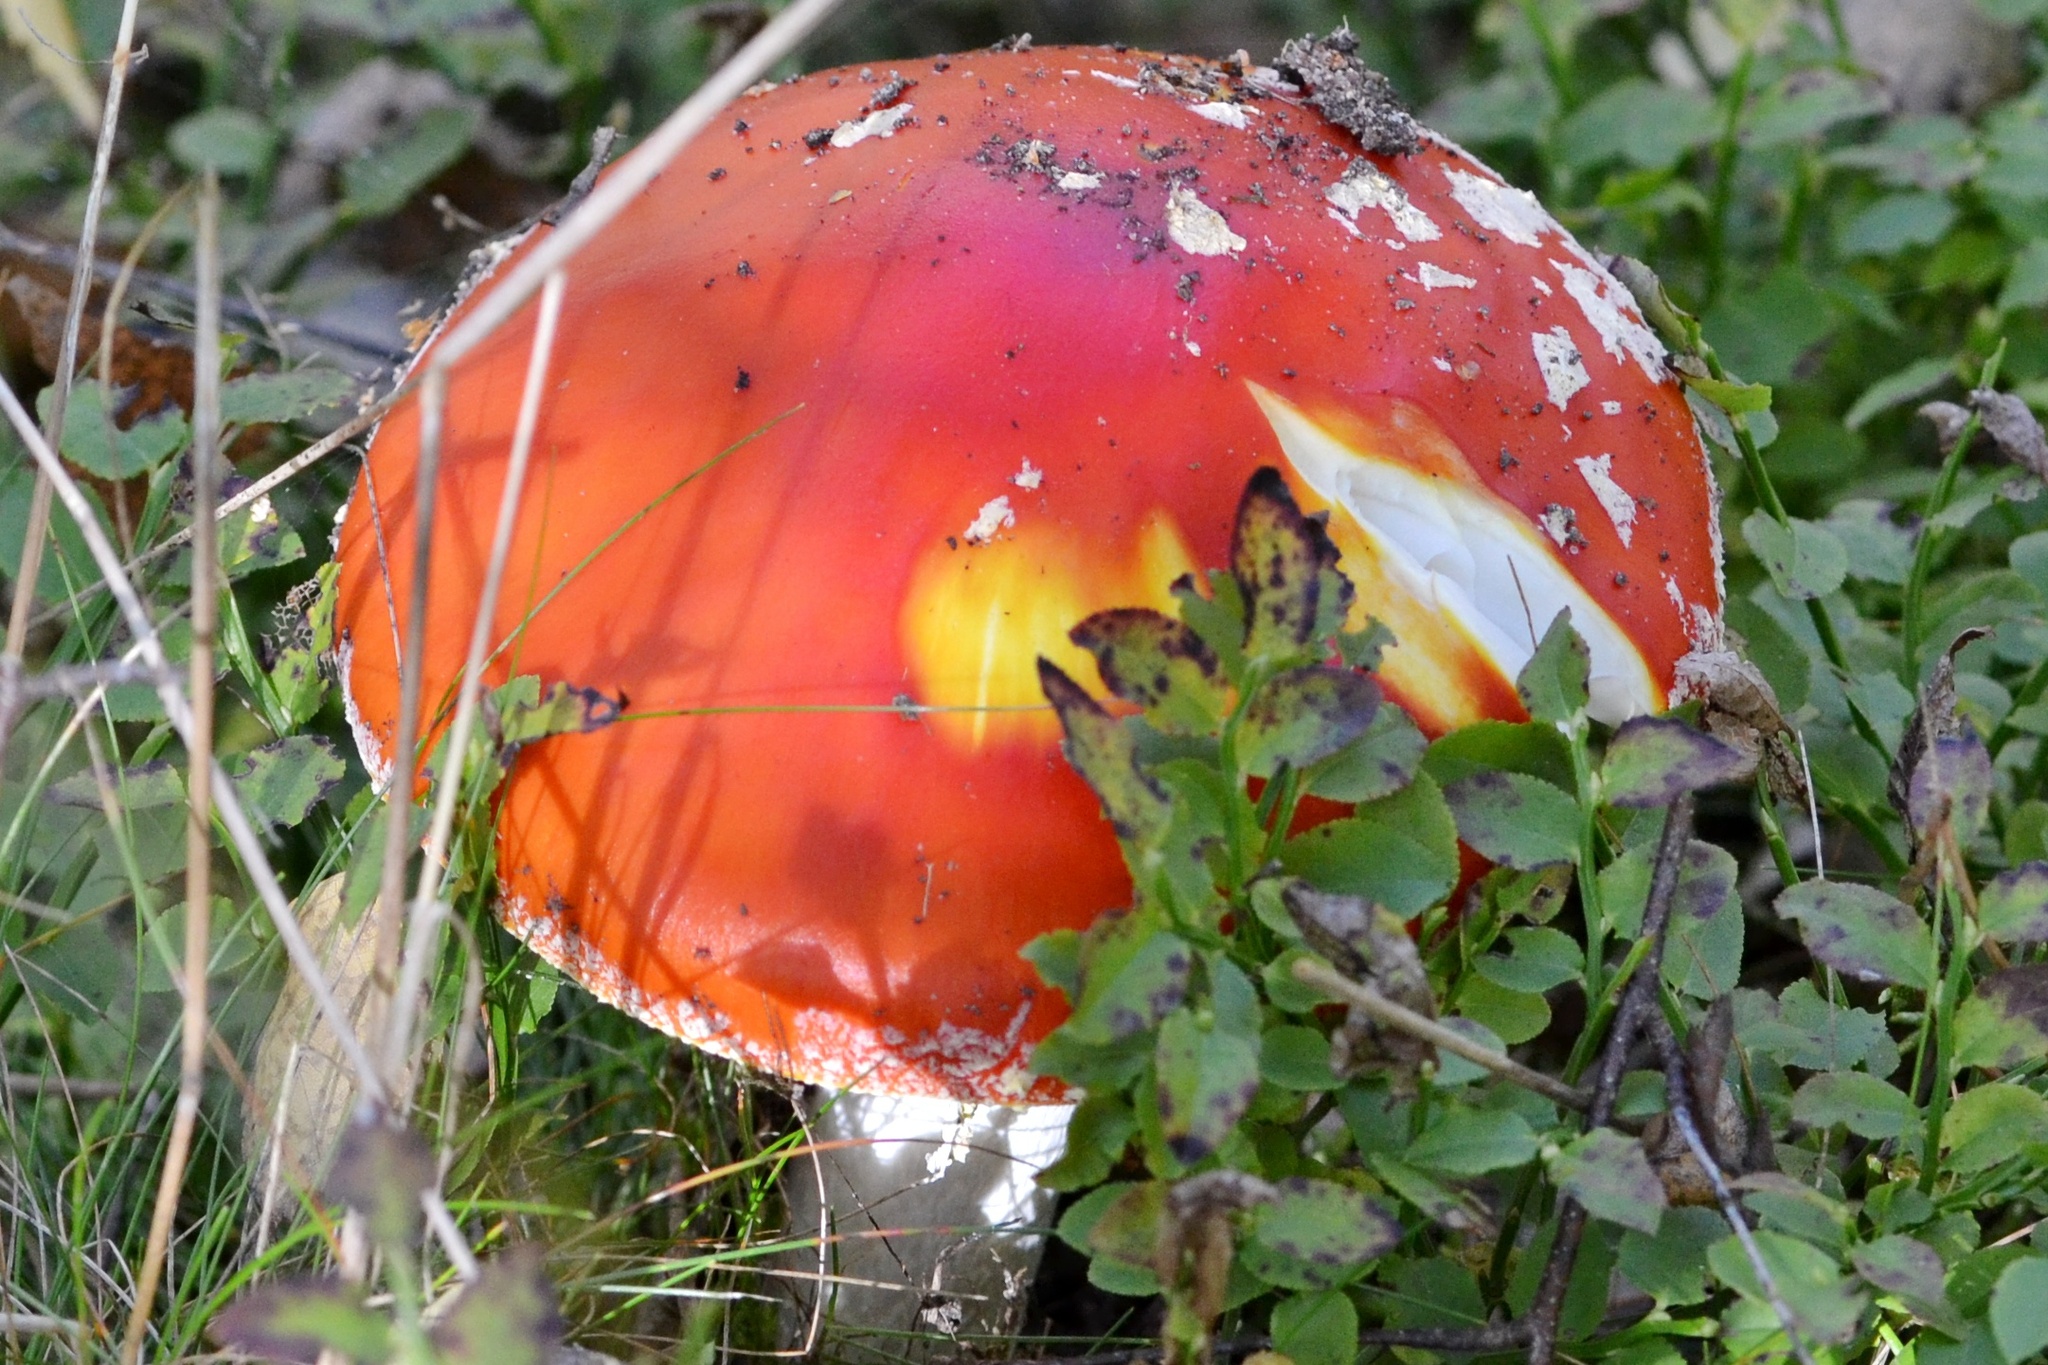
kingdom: Fungi
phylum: Basidiomycota
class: Agaricomycetes
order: Agaricales
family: Amanitaceae
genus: Amanita
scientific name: Amanita muscaria
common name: Fly agaric
